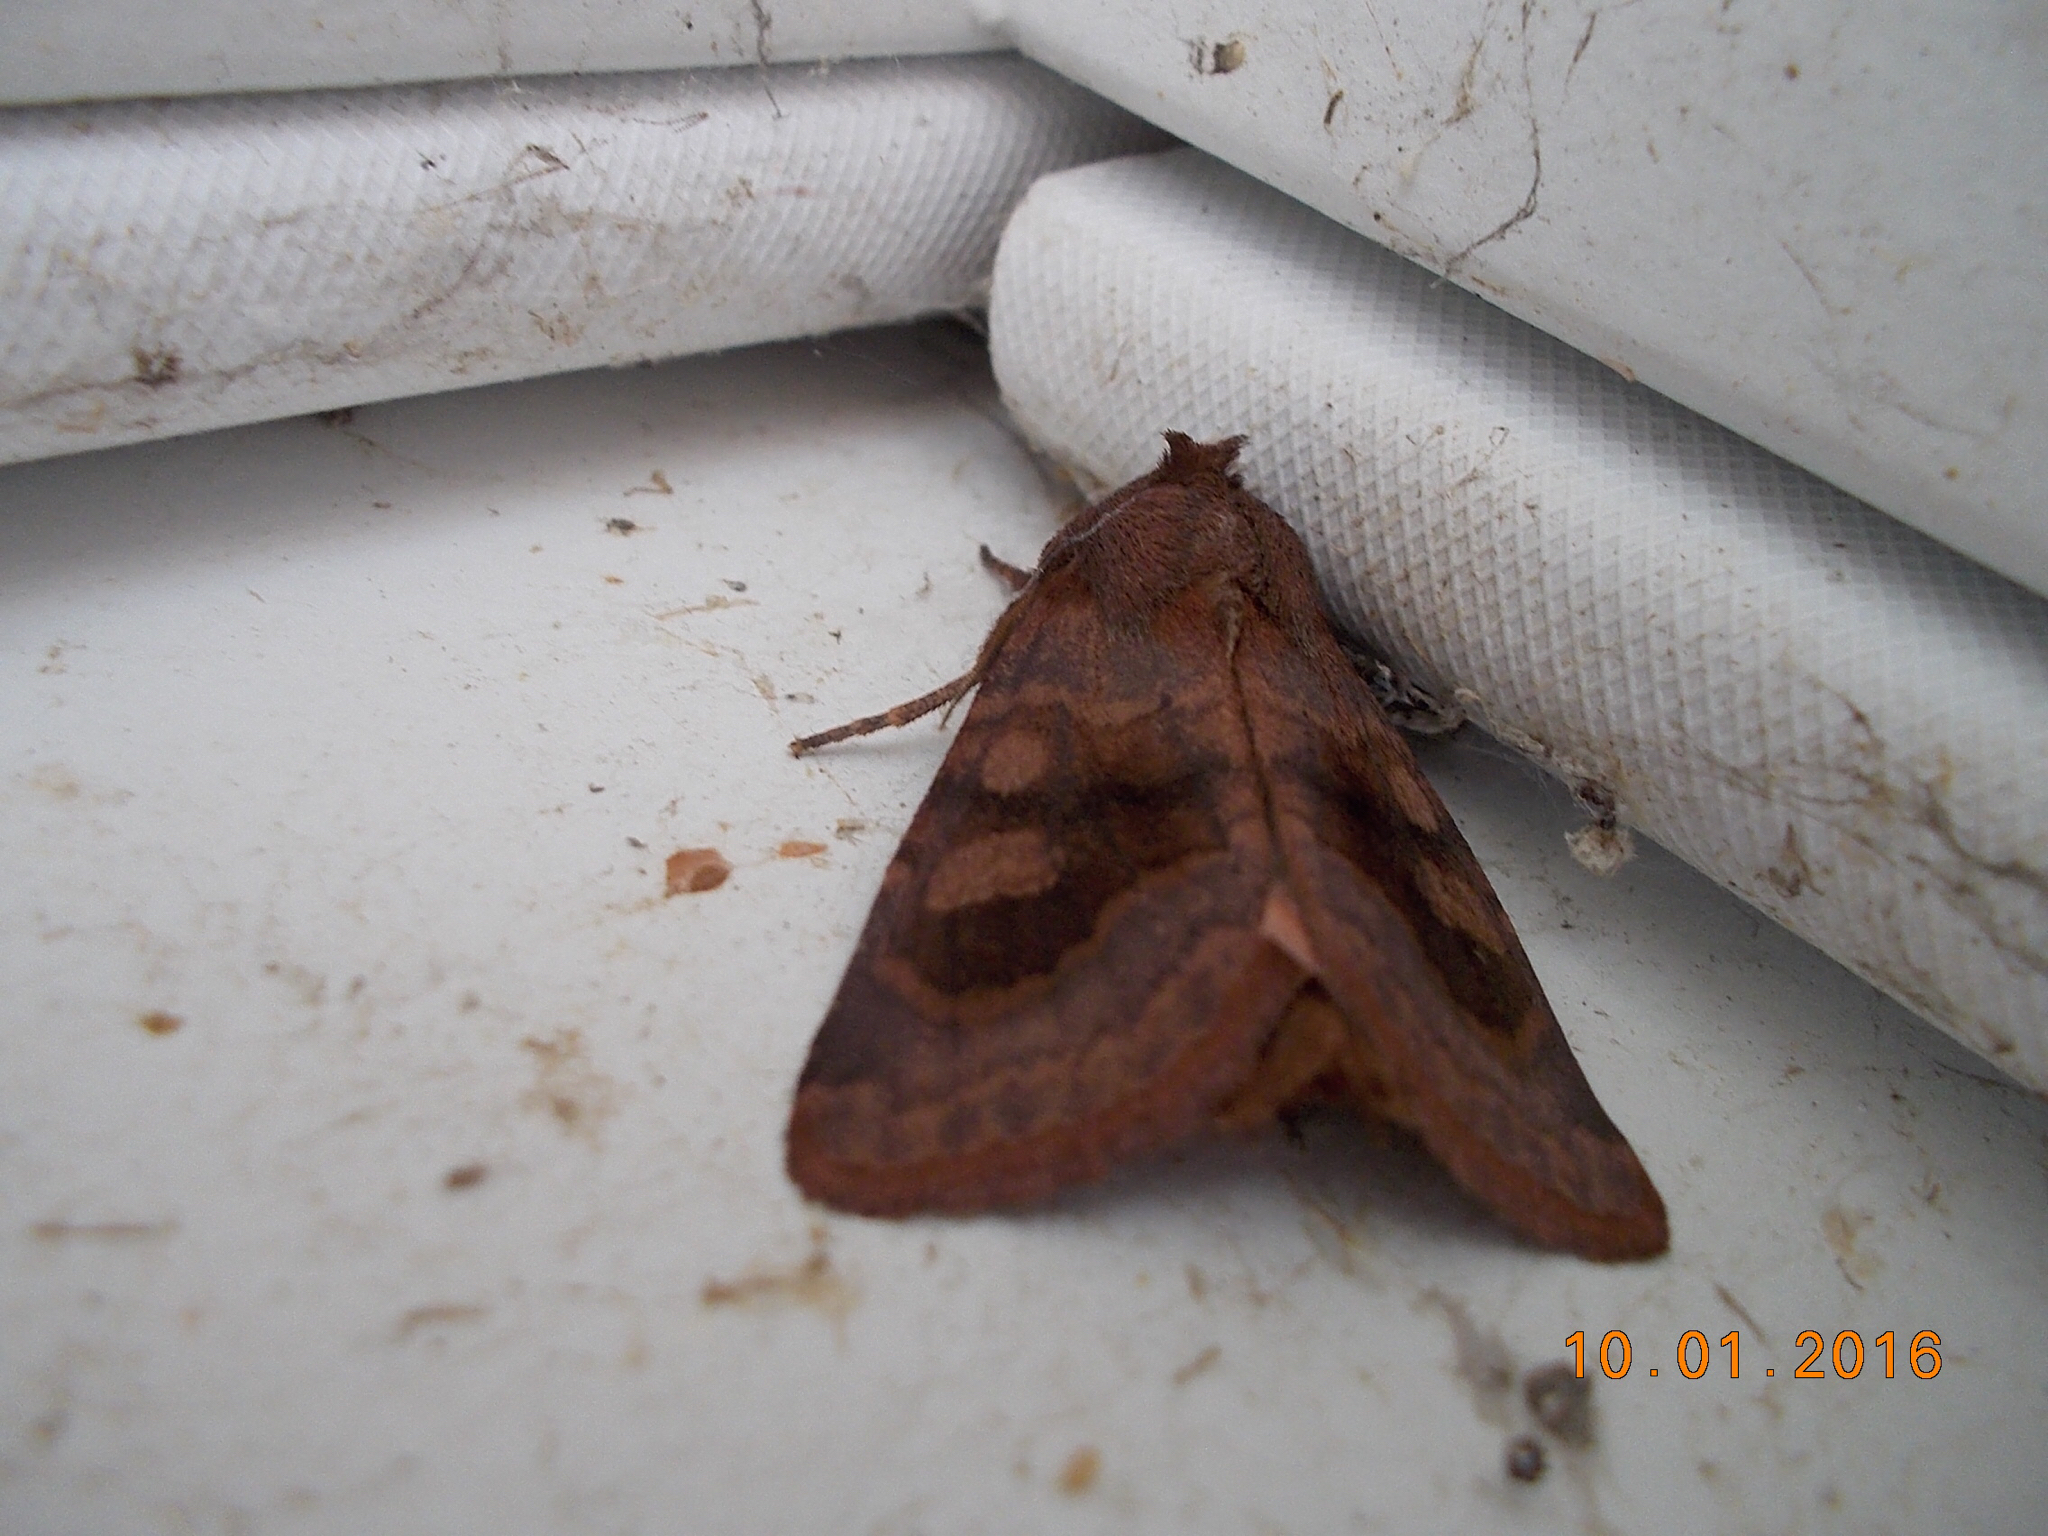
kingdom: Animalia
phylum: Arthropoda
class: Insecta
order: Lepidoptera
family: Noctuidae
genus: Nephelodes
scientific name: Nephelodes minians
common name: Bronzed cutworm
